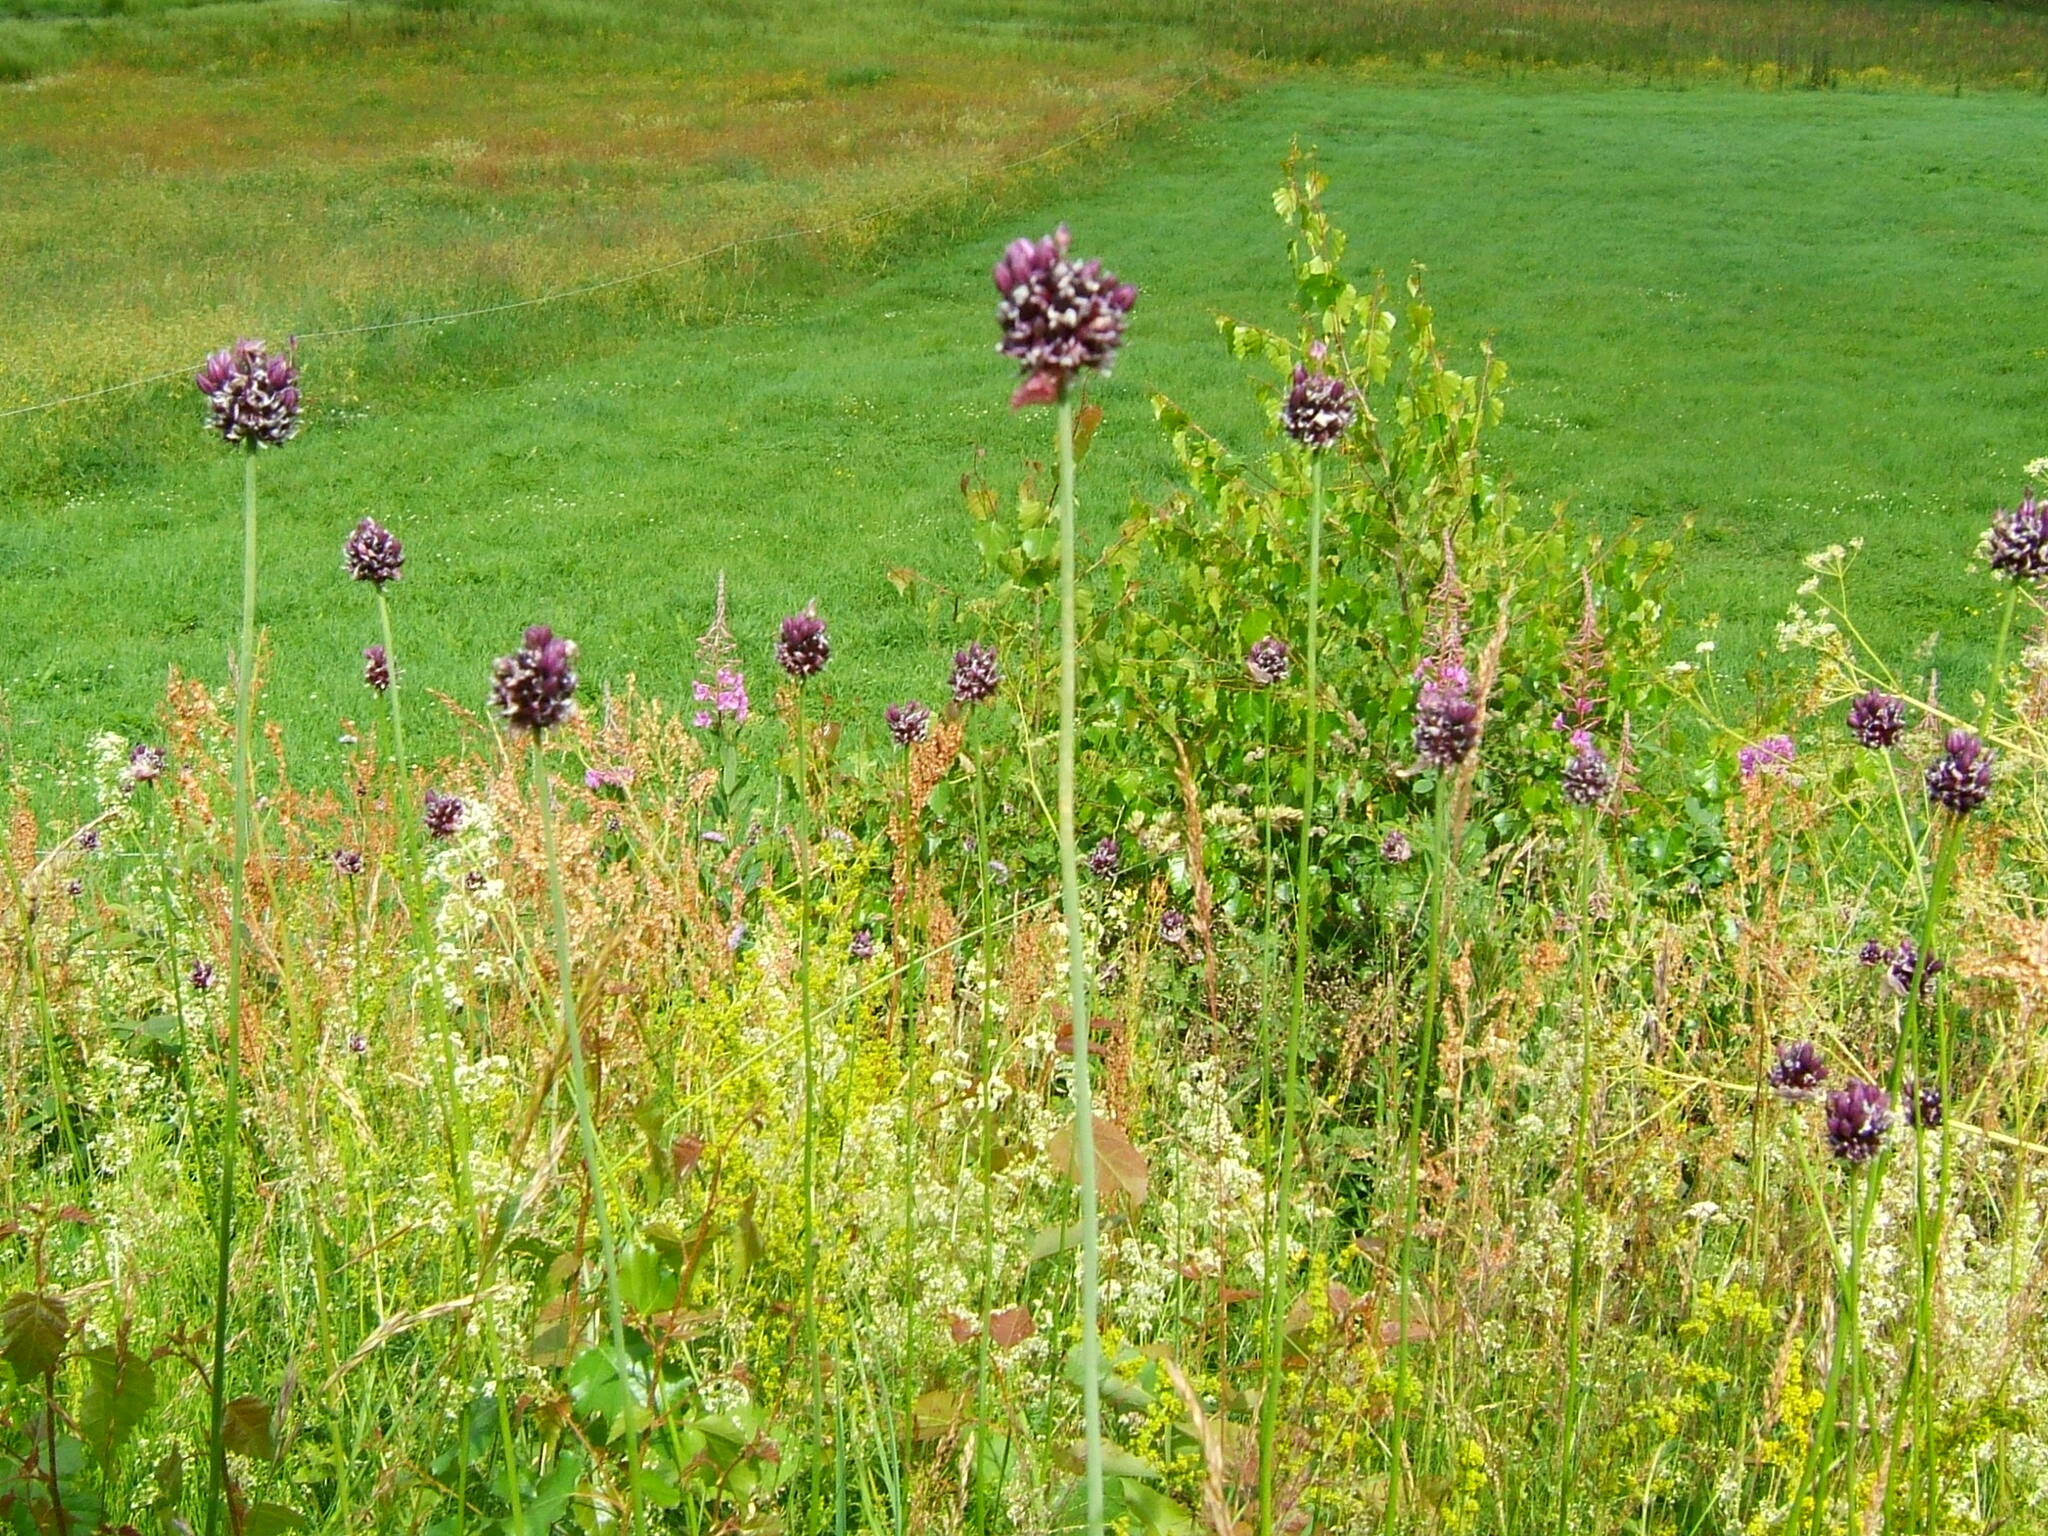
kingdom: Plantae
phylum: Tracheophyta
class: Liliopsida
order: Asparagales
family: Amaryllidaceae
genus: Allium
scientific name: Allium scorodoprasum
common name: Sand leek
